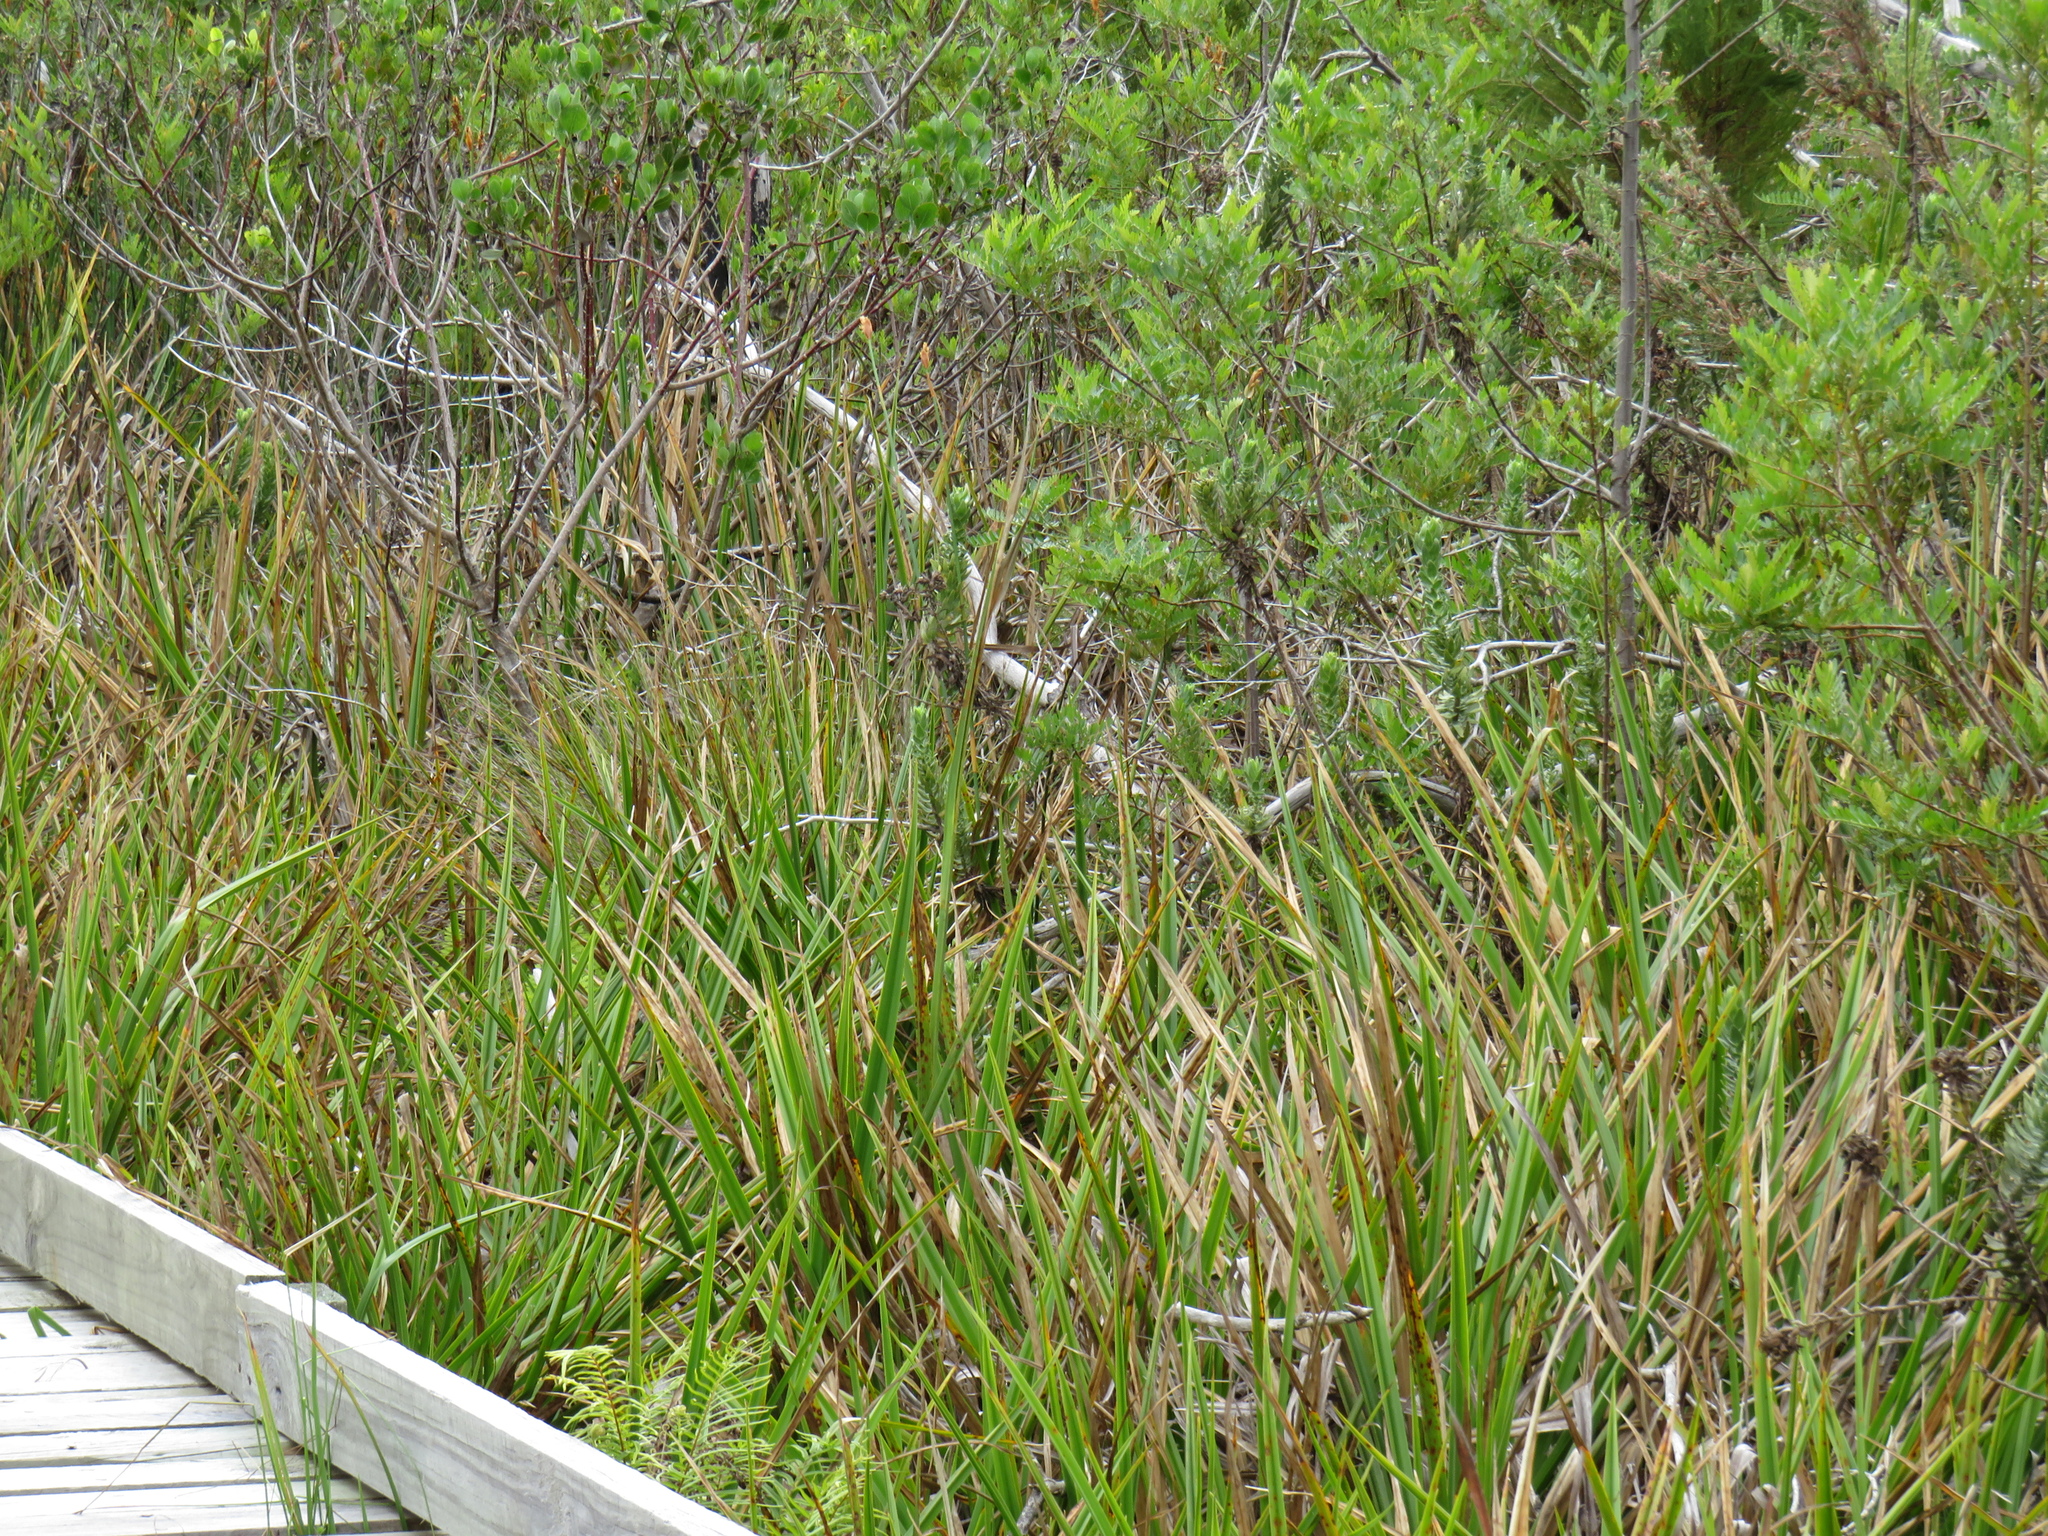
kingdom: Plantae
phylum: Tracheophyta
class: Liliopsida
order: Poales
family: Cyperaceae
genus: Carpha
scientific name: Carpha glomerata
